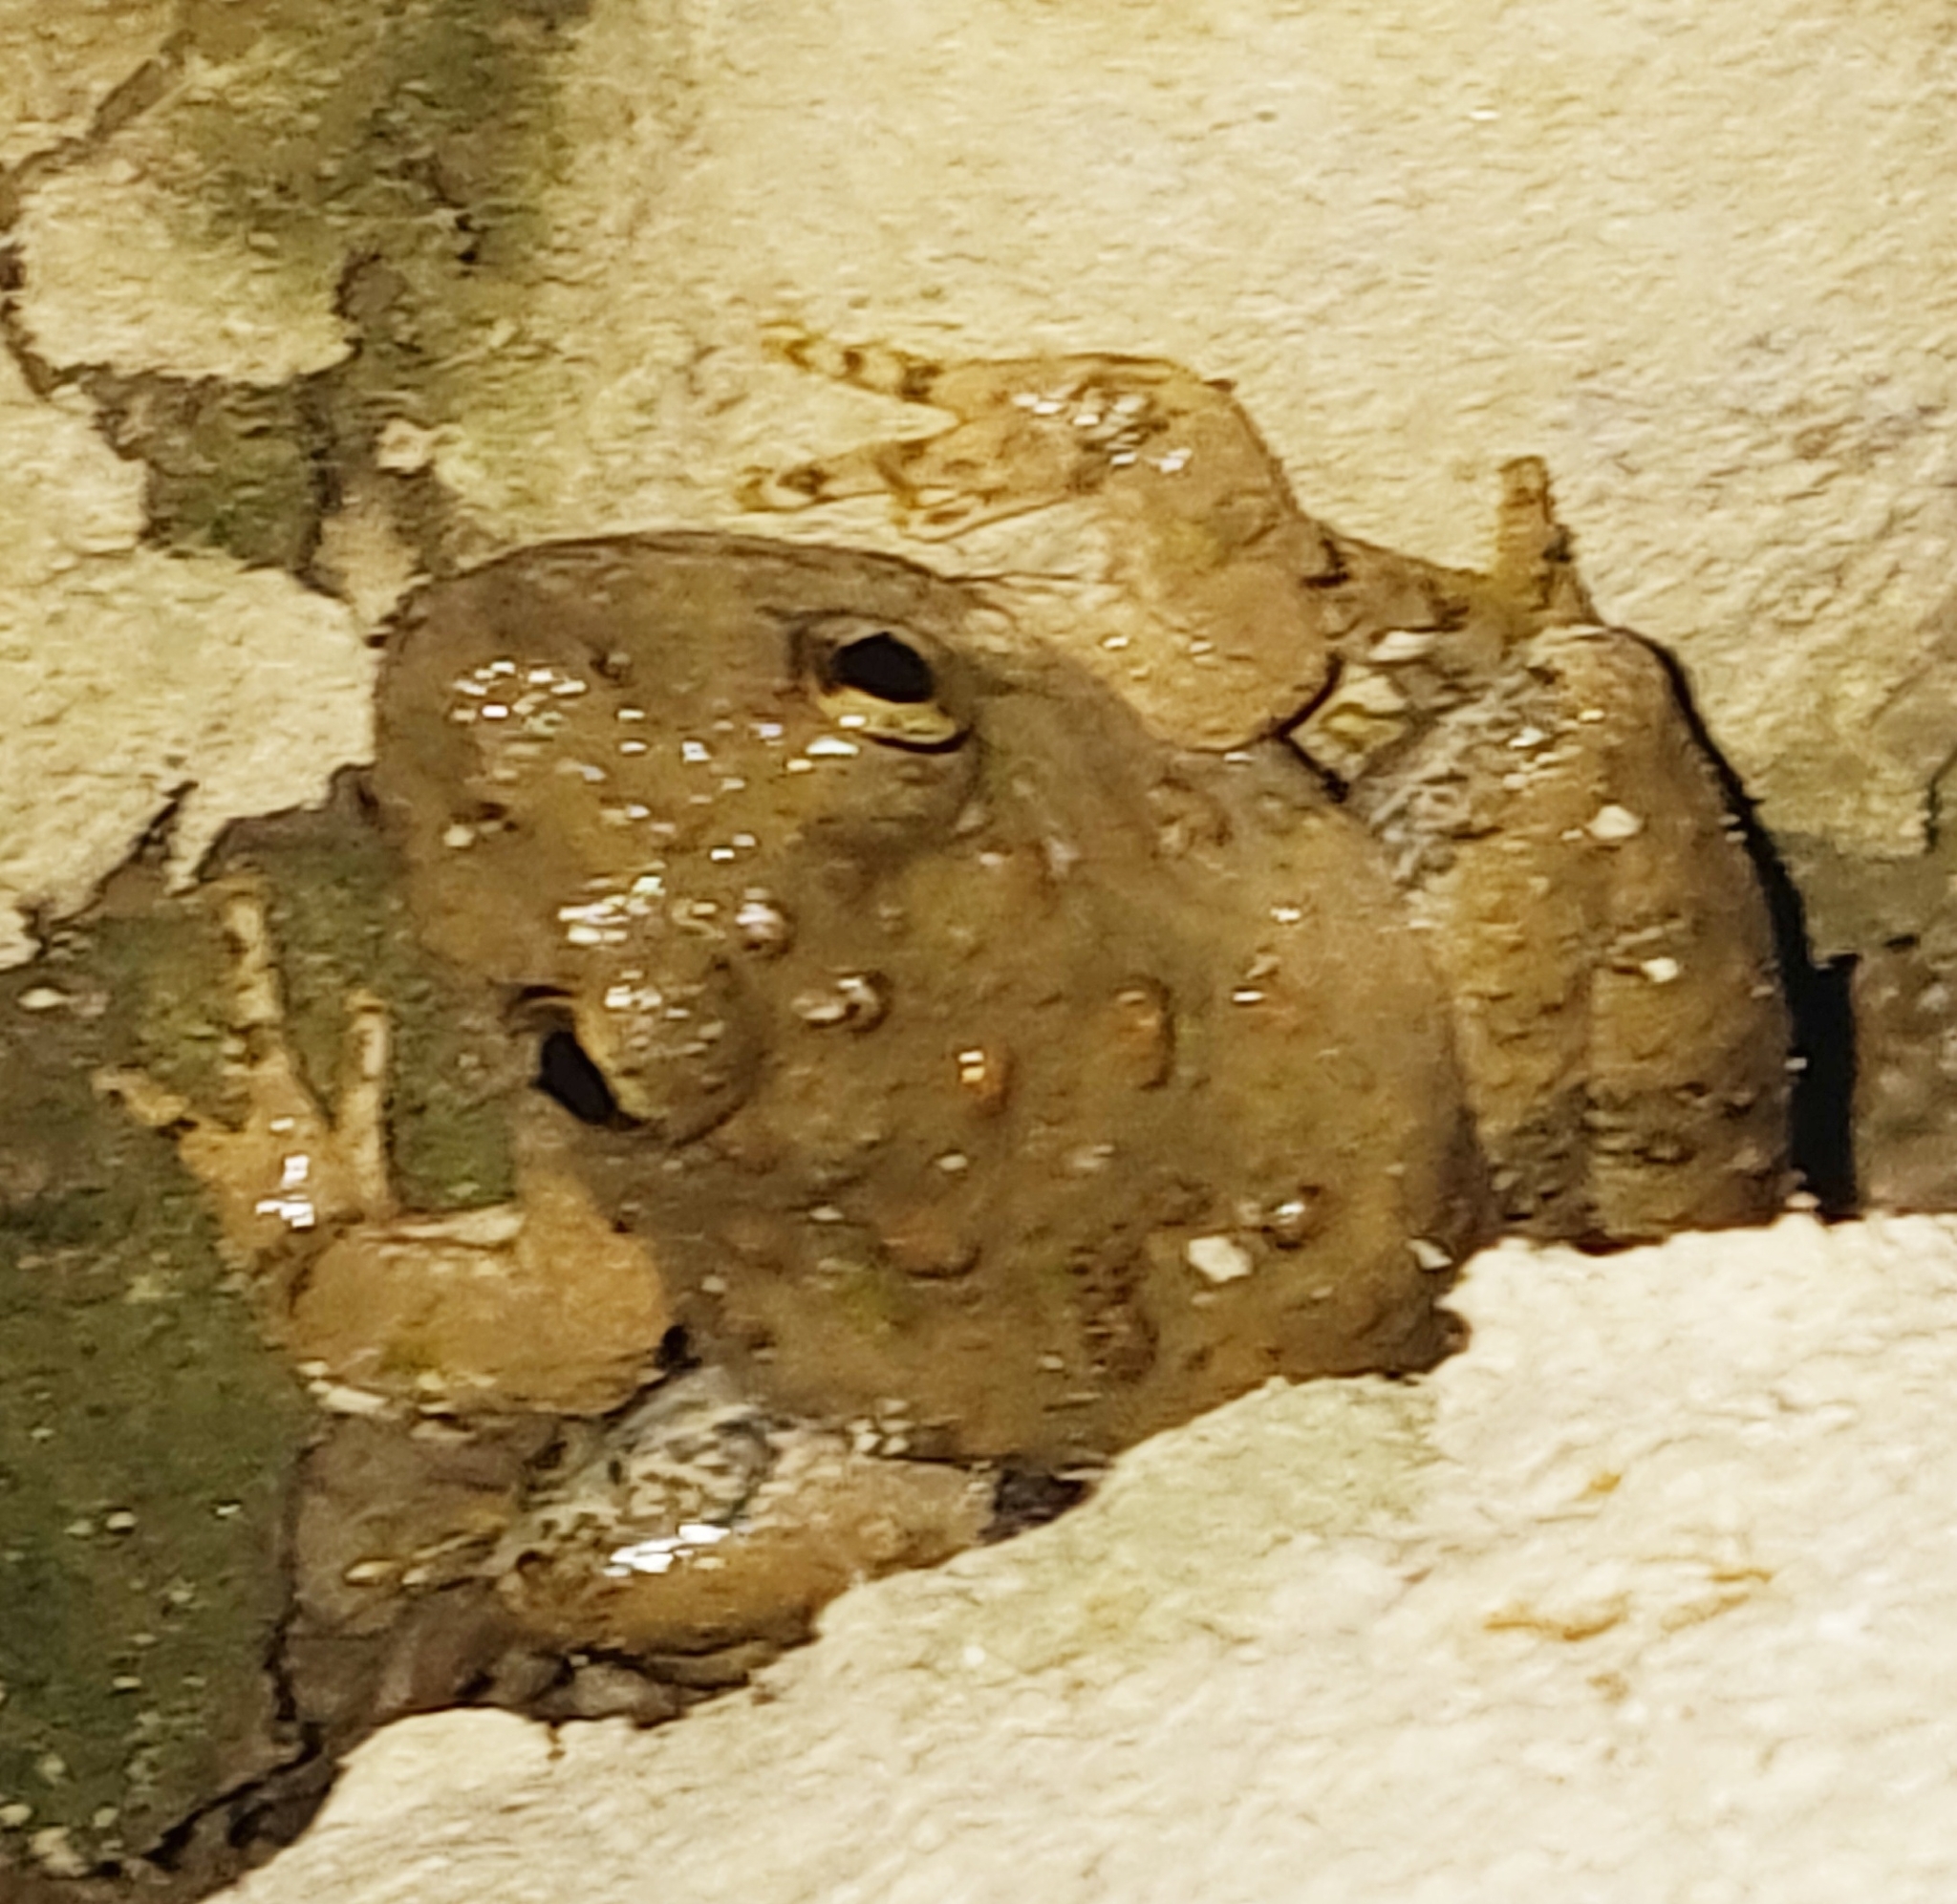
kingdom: Animalia
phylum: Chordata
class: Amphibia
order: Anura
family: Hylidae
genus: Acris
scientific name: Acris blanchardi
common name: Blanchard's cricket frog
